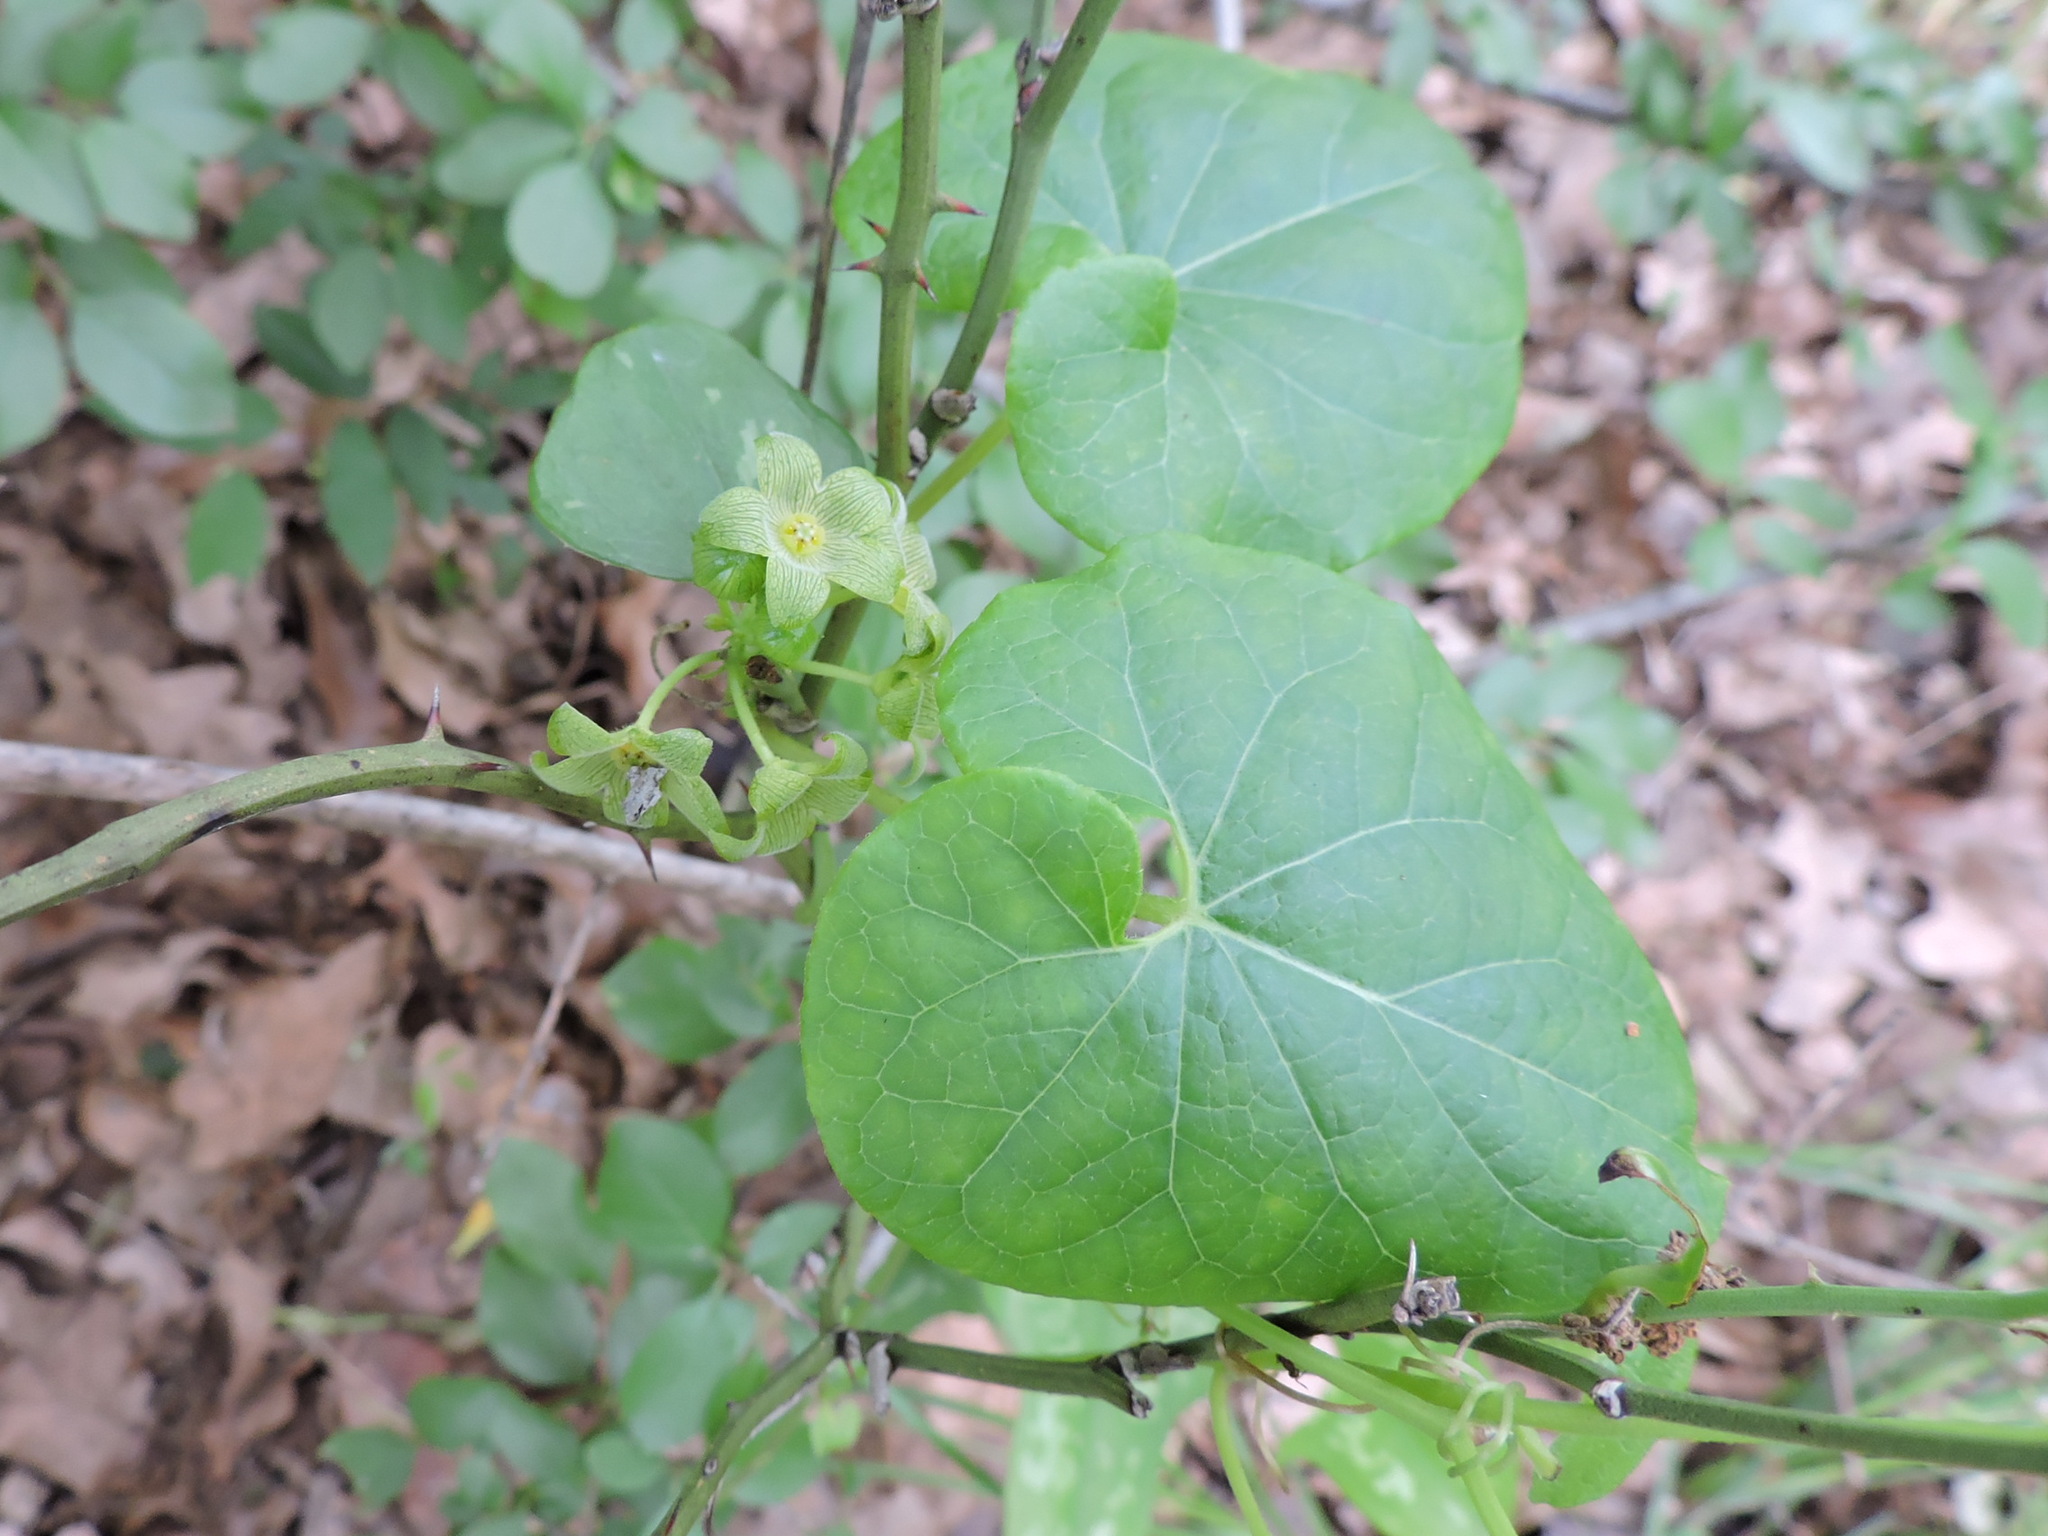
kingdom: Plantae
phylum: Tracheophyta
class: Magnoliopsida
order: Gentianales
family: Apocynaceae
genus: Matelea
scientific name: Matelea edwardsensis
